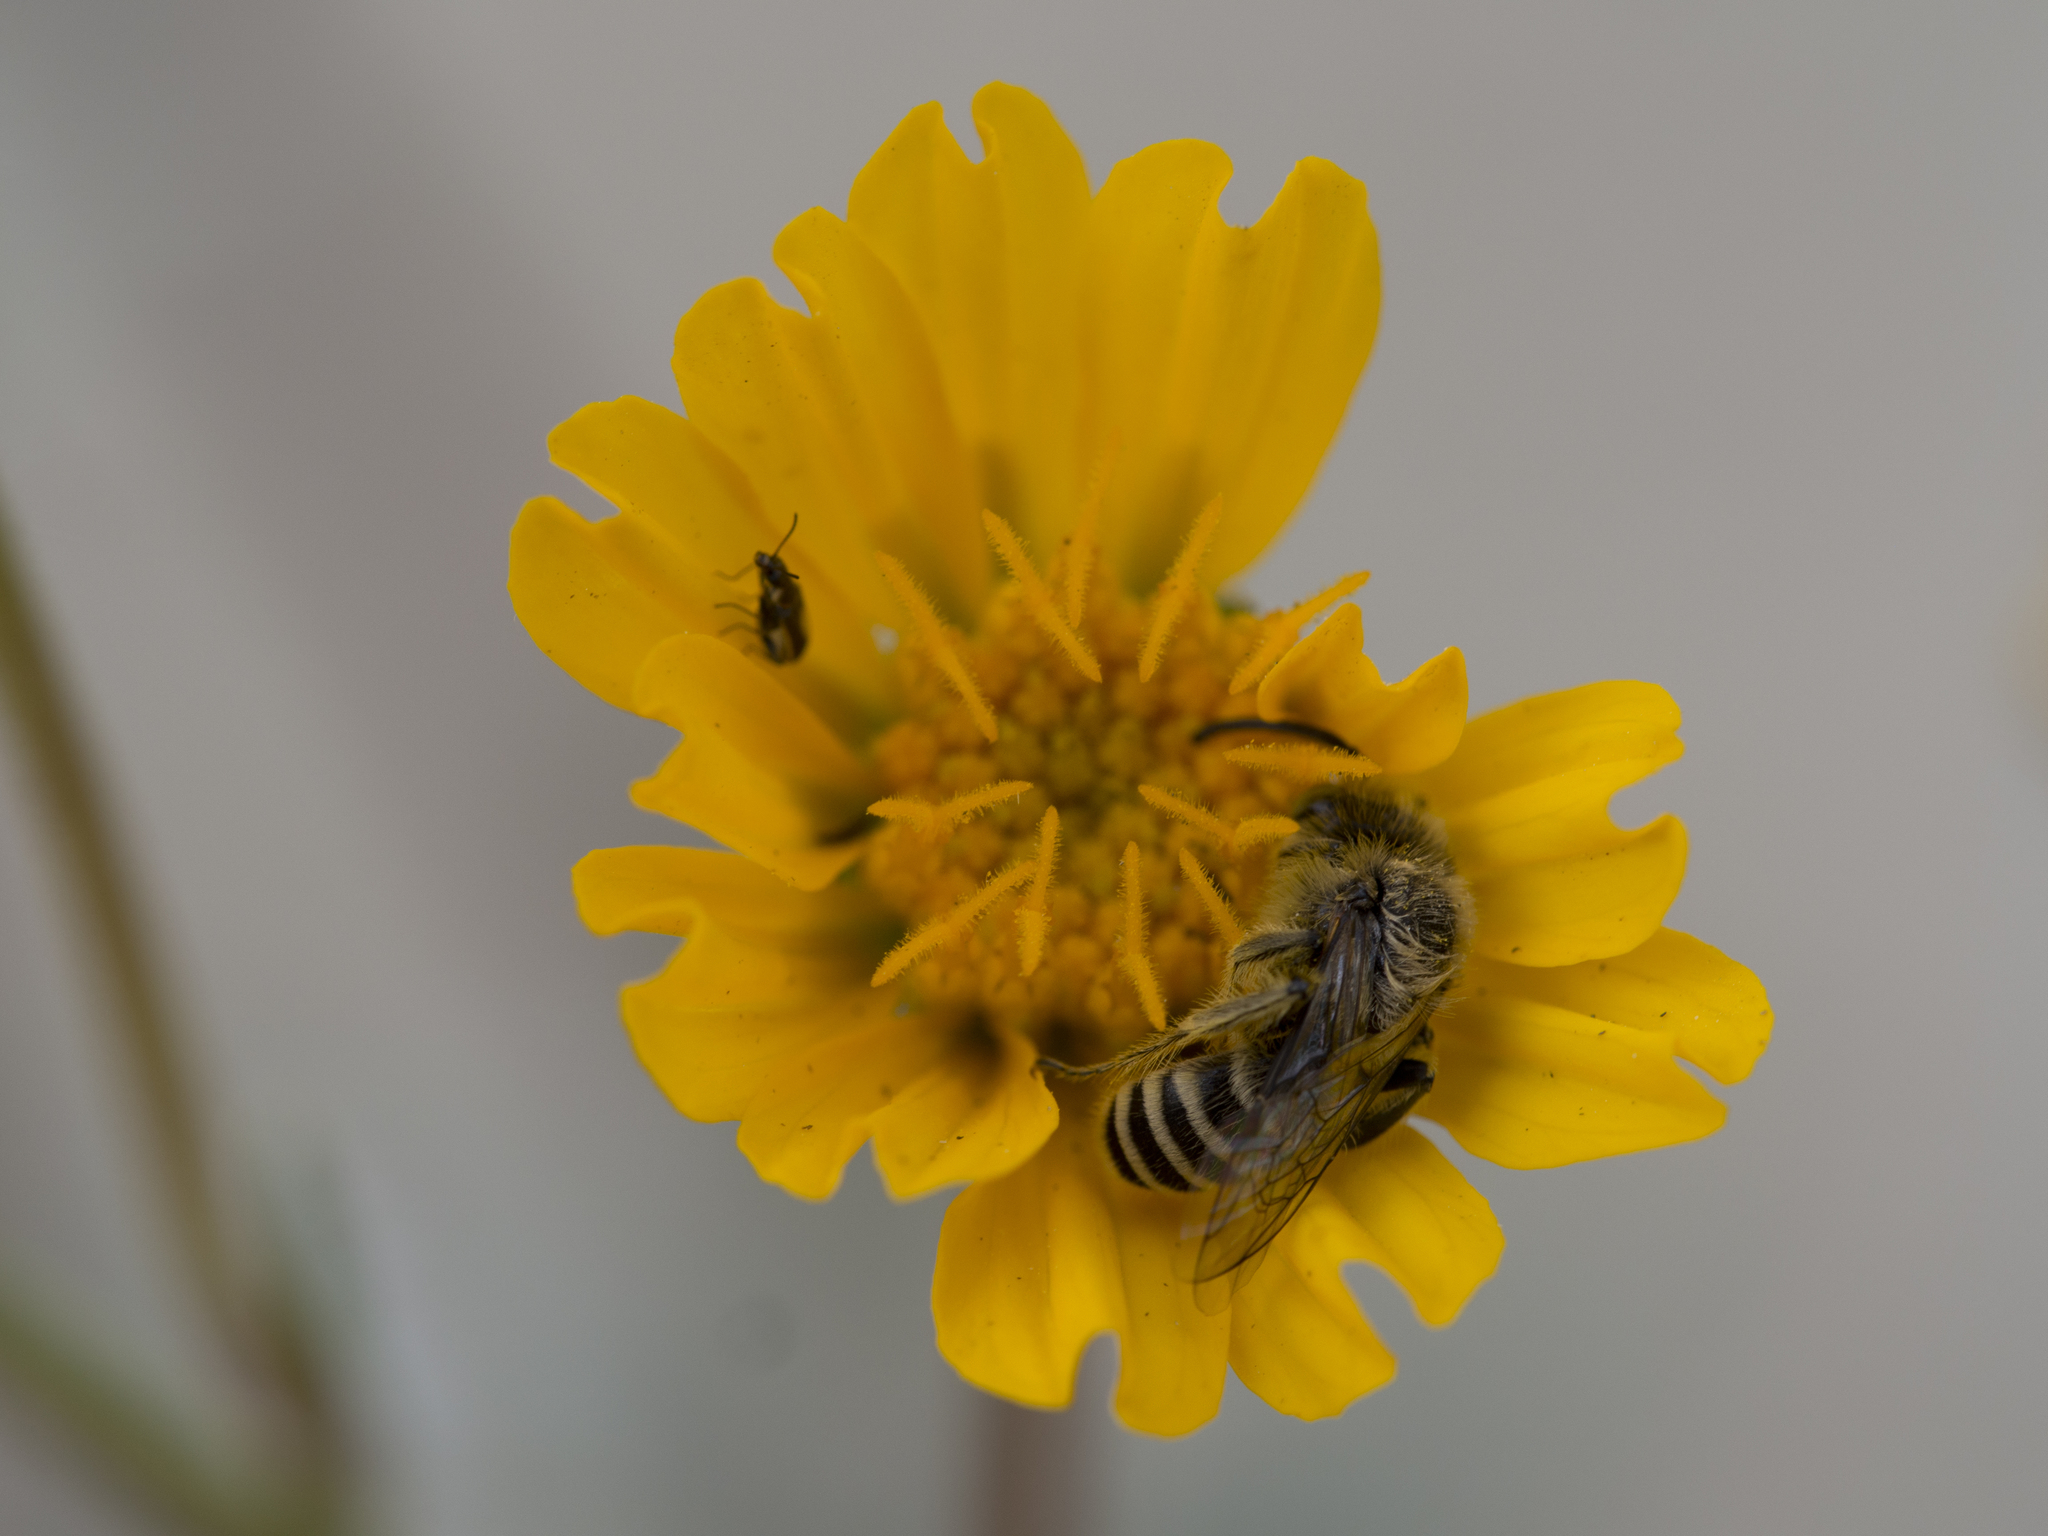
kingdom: Animalia
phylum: Arthropoda
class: Insecta
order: Hymenoptera
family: Melittidae
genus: Hesperapis
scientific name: Hesperapis
